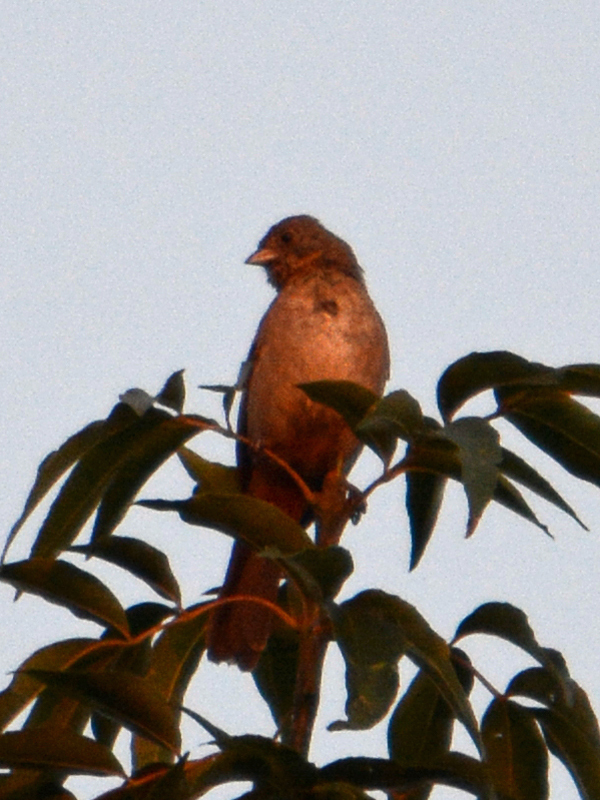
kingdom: Animalia
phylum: Chordata
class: Aves
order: Passeriformes
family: Passerellidae
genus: Melozone
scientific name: Melozone fusca
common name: Canyon towhee
